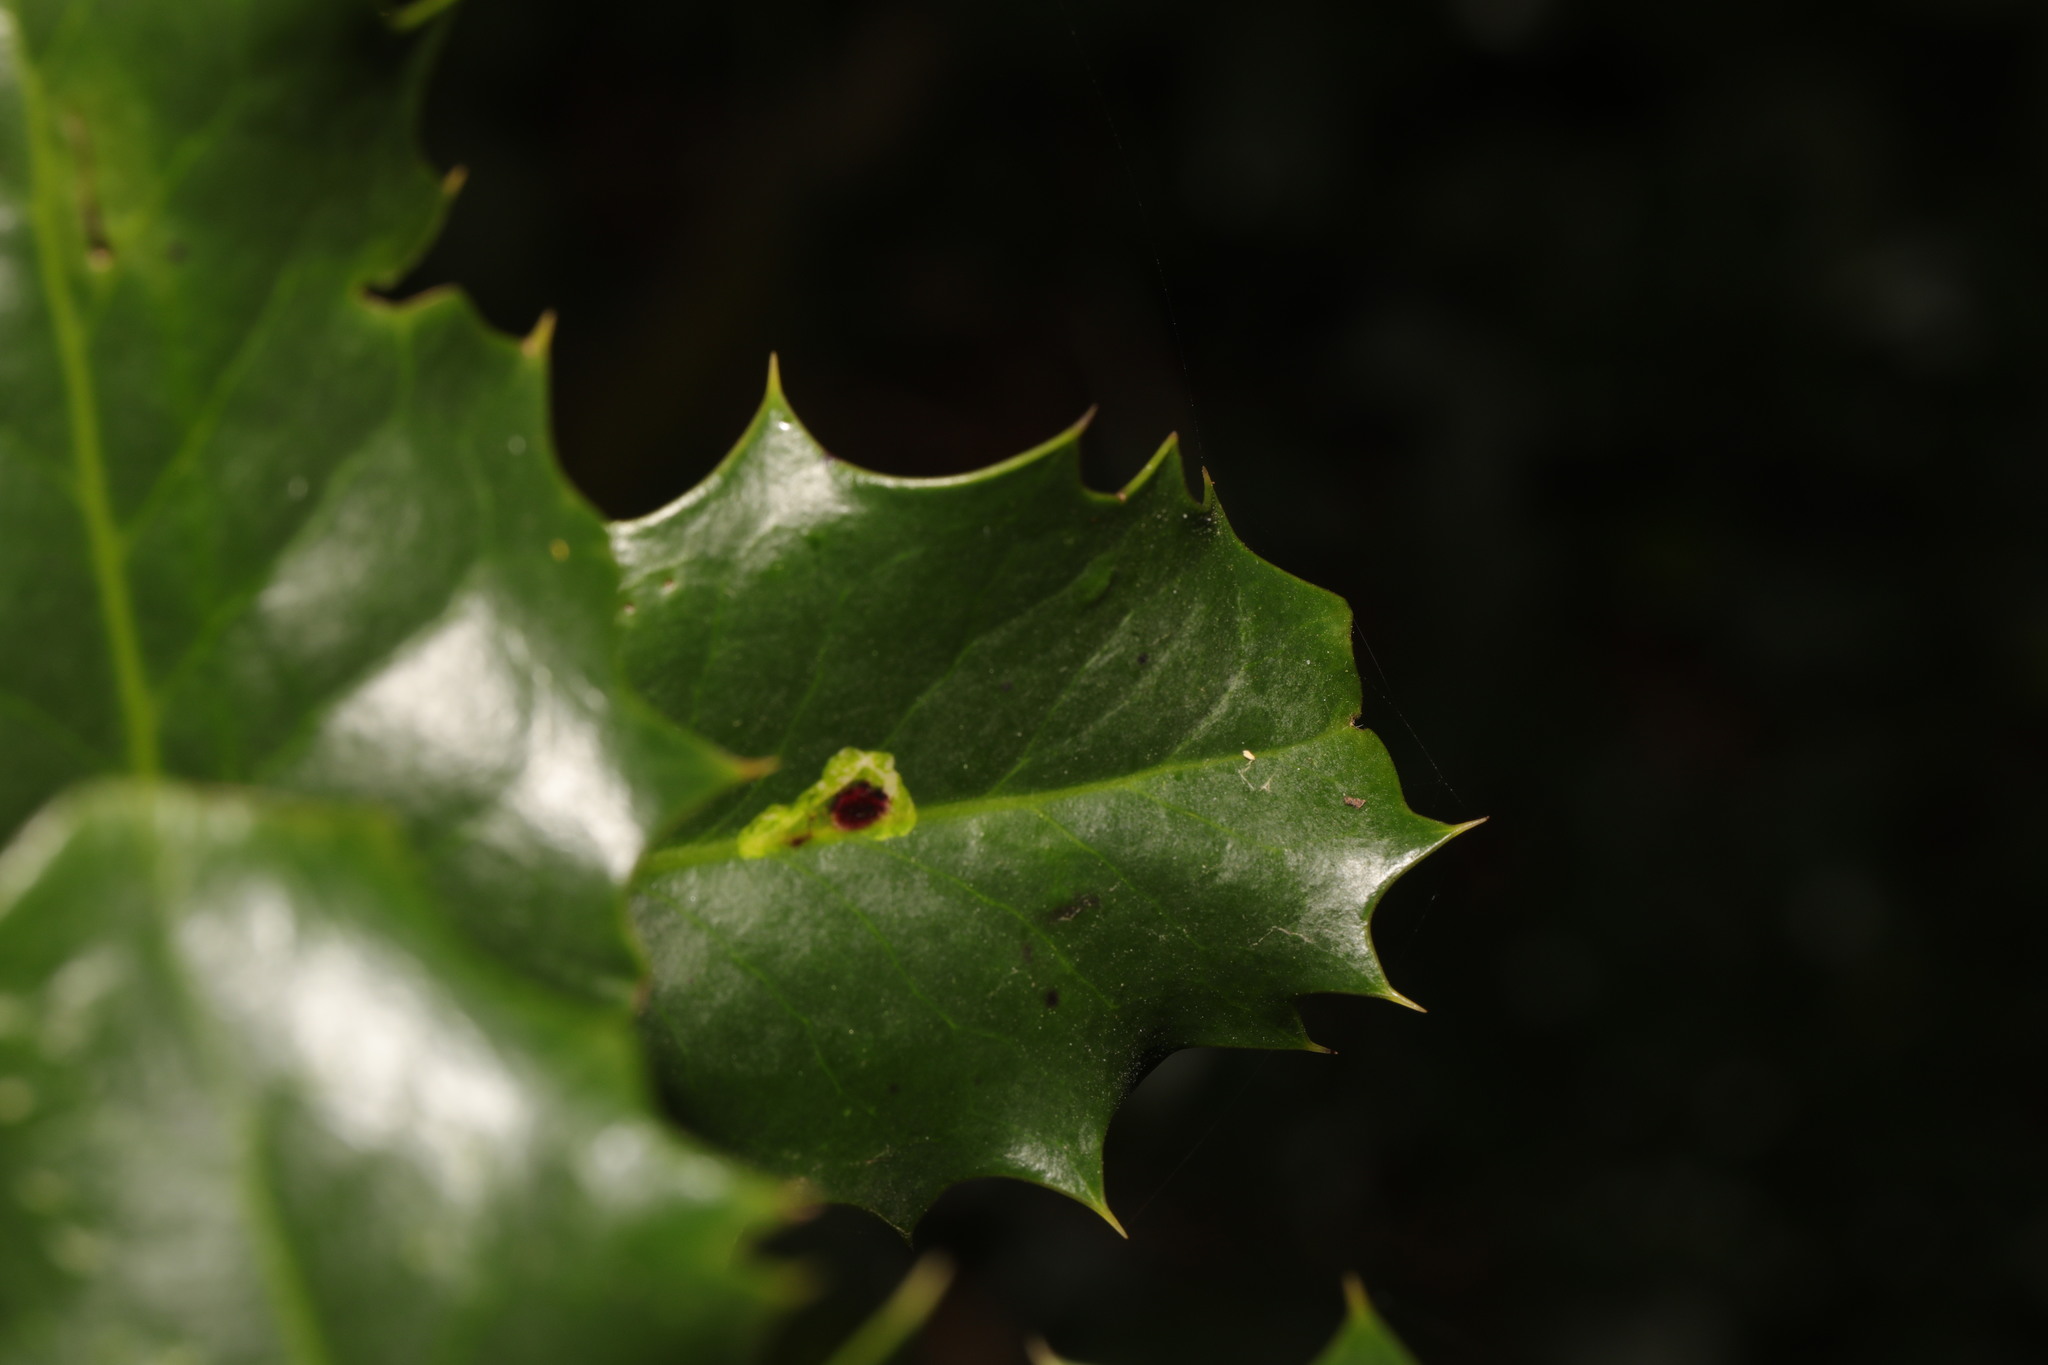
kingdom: Animalia
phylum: Arthropoda
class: Insecta
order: Diptera
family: Agromyzidae
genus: Phytomyza
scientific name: Phytomyza ilicis
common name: Holly leafminer
